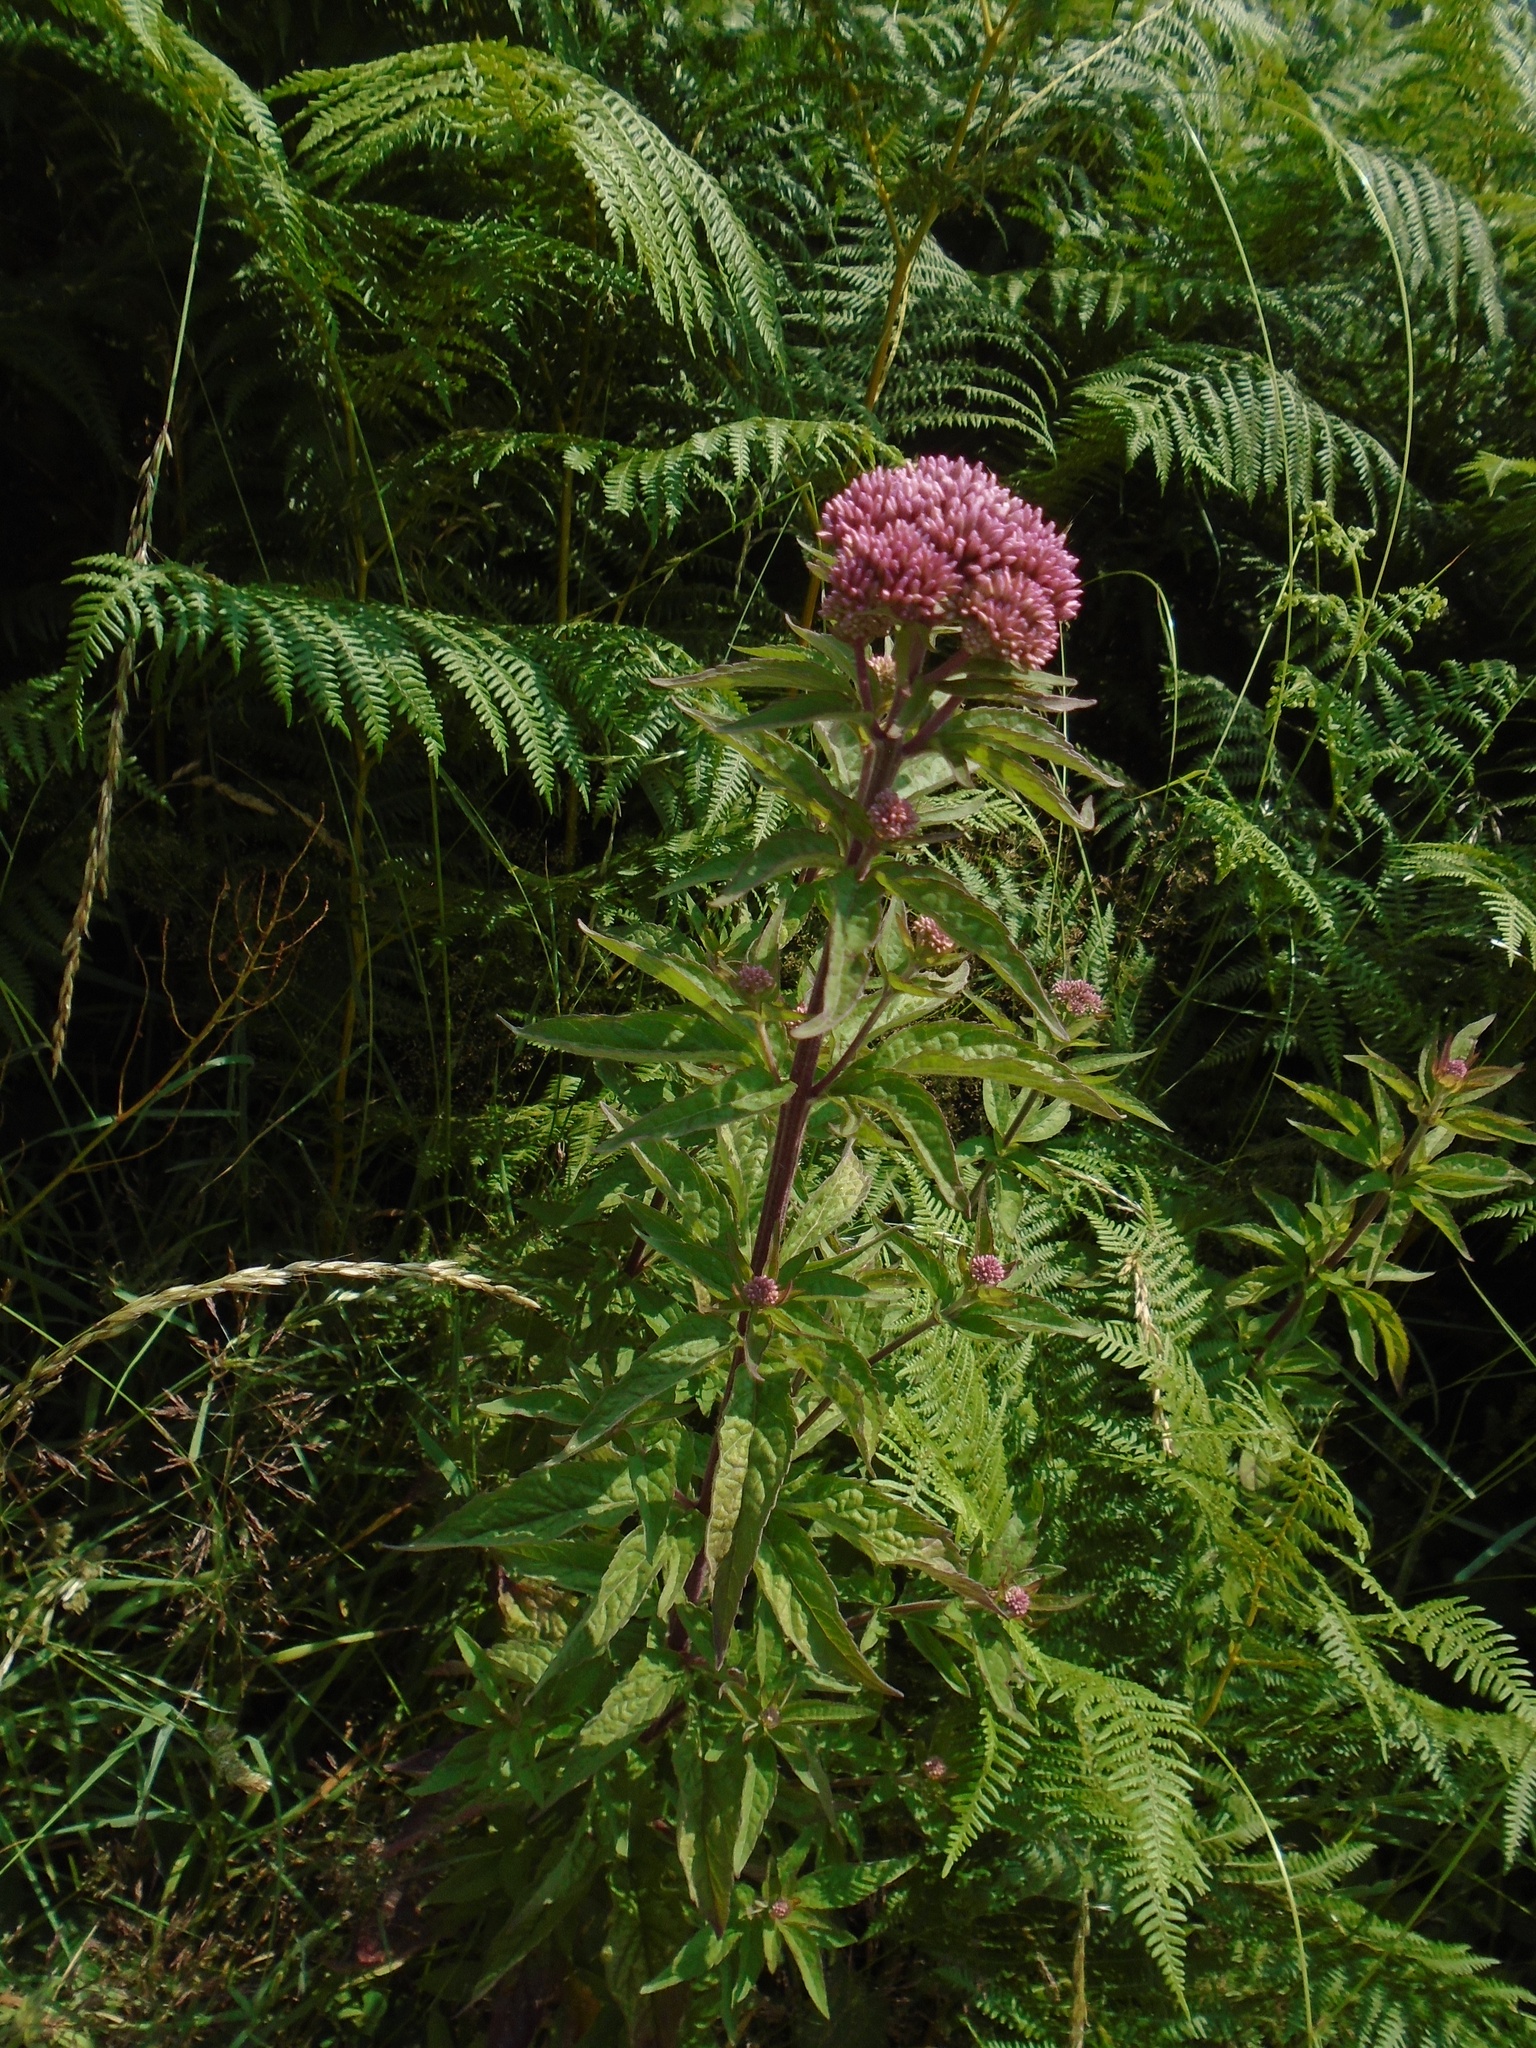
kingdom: Plantae
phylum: Tracheophyta
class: Magnoliopsida
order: Asterales
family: Asteraceae
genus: Eupatorium
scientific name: Eupatorium cannabinum
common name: Hemp-agrimony
